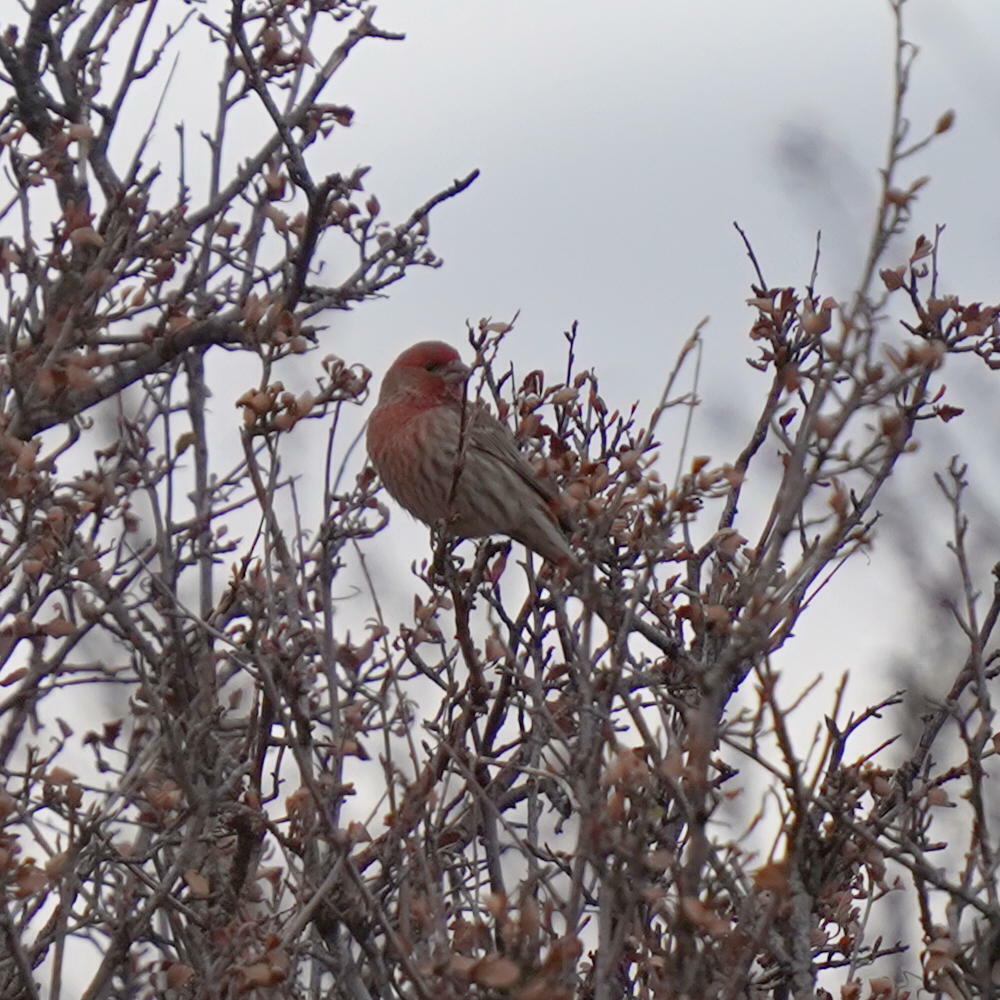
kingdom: Animalia
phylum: Chordata
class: Aves
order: Passeriformes
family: Fringillidae
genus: Haemorhous
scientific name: Haemorhous mexicanus
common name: House finch
